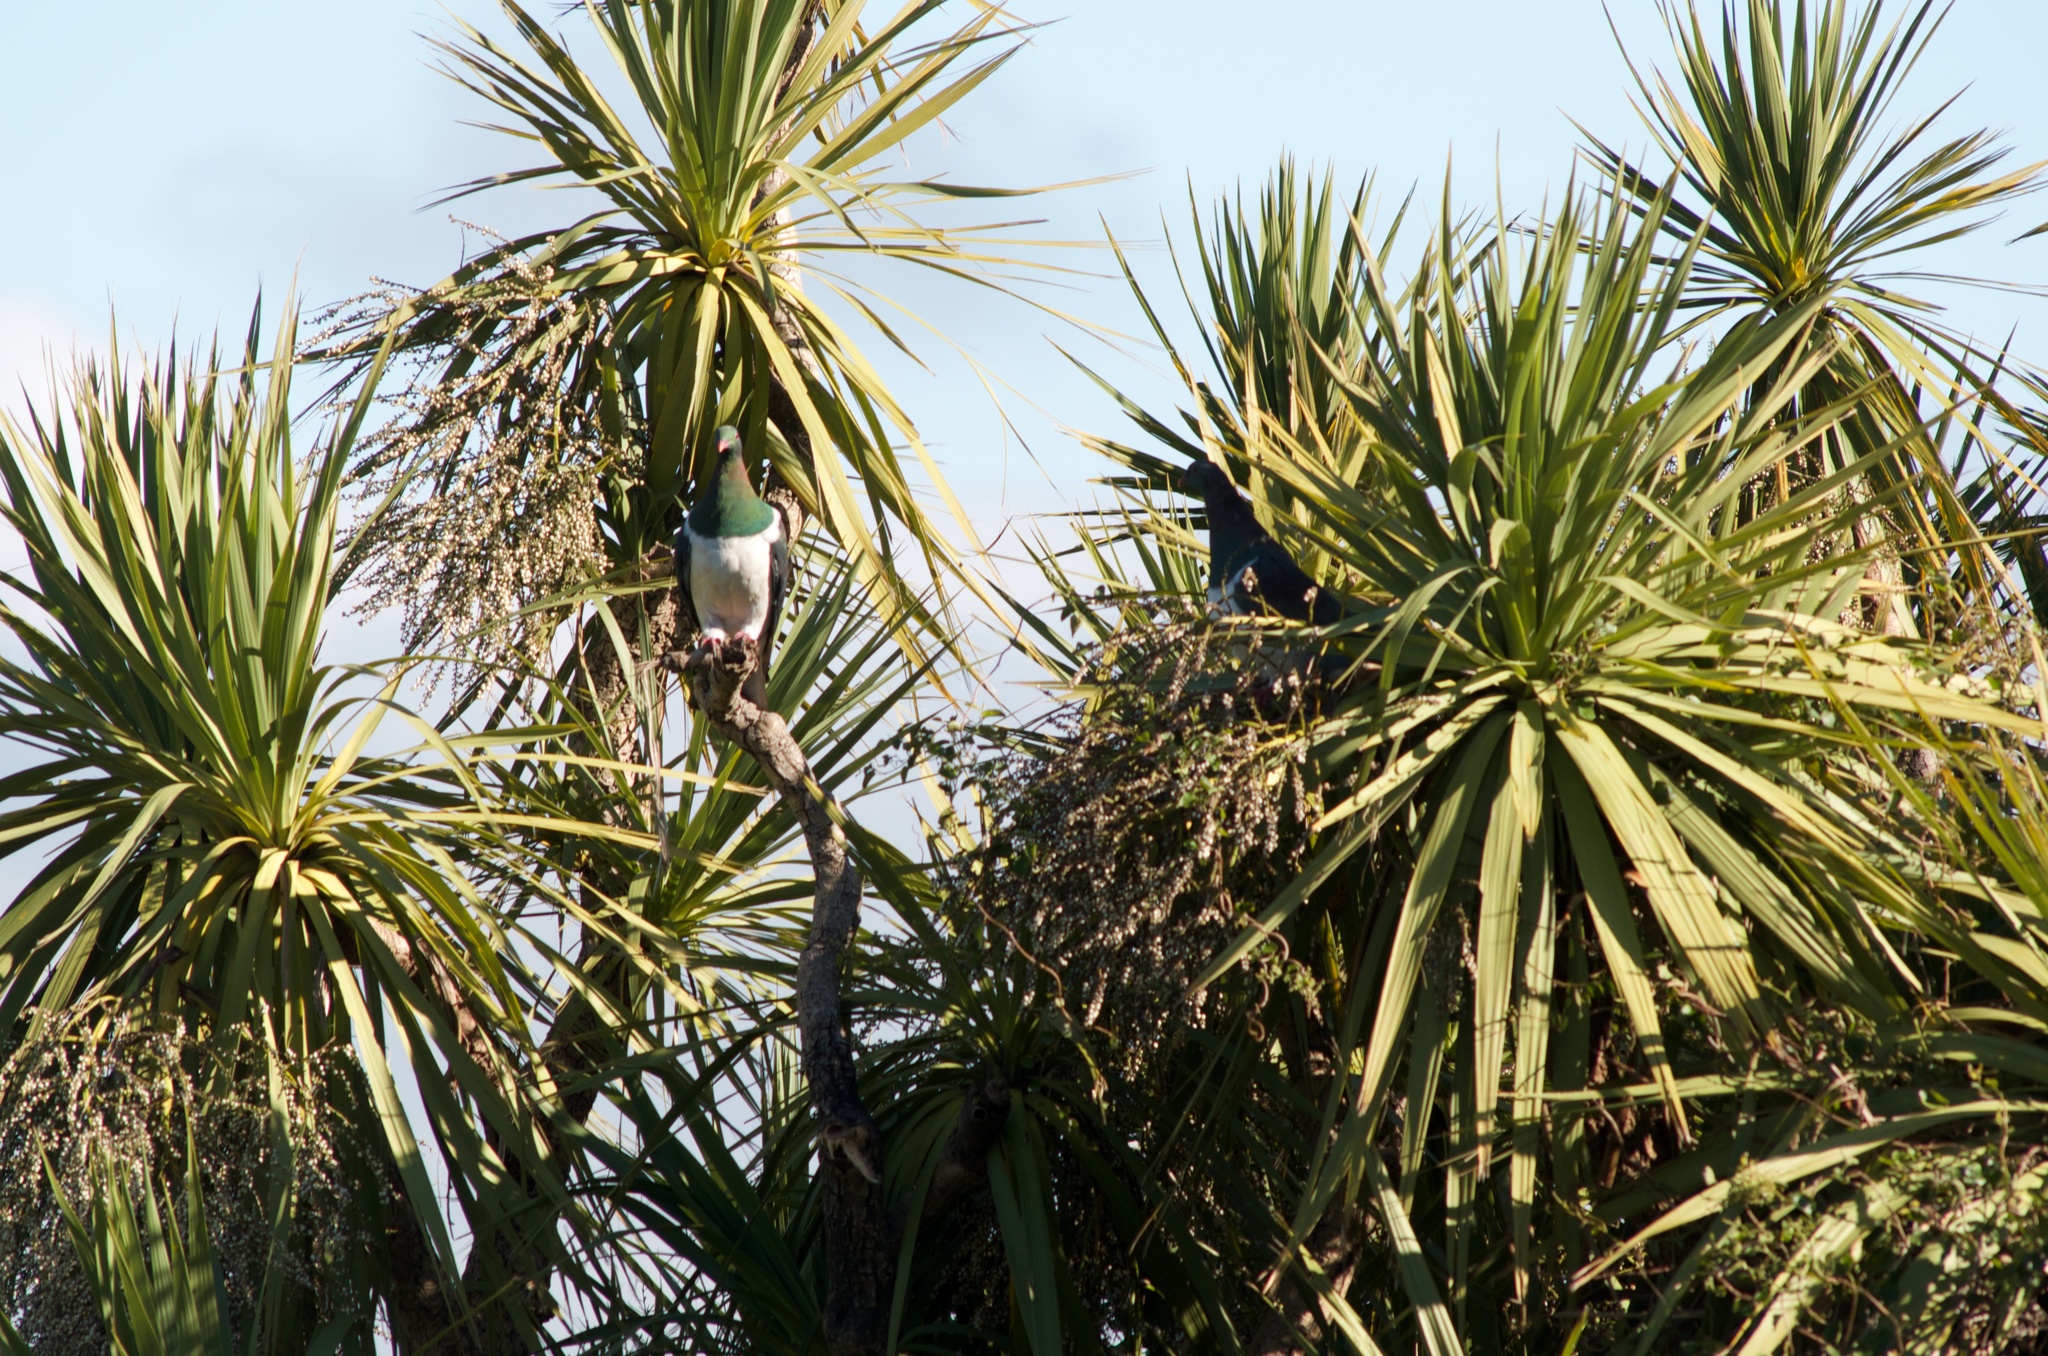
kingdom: Animalia
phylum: Chordata
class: Aves
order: Columbiformes
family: Columbidae
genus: Hemiphaga
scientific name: Hemiphaga novaeseelandiae
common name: New zealand pigeon
